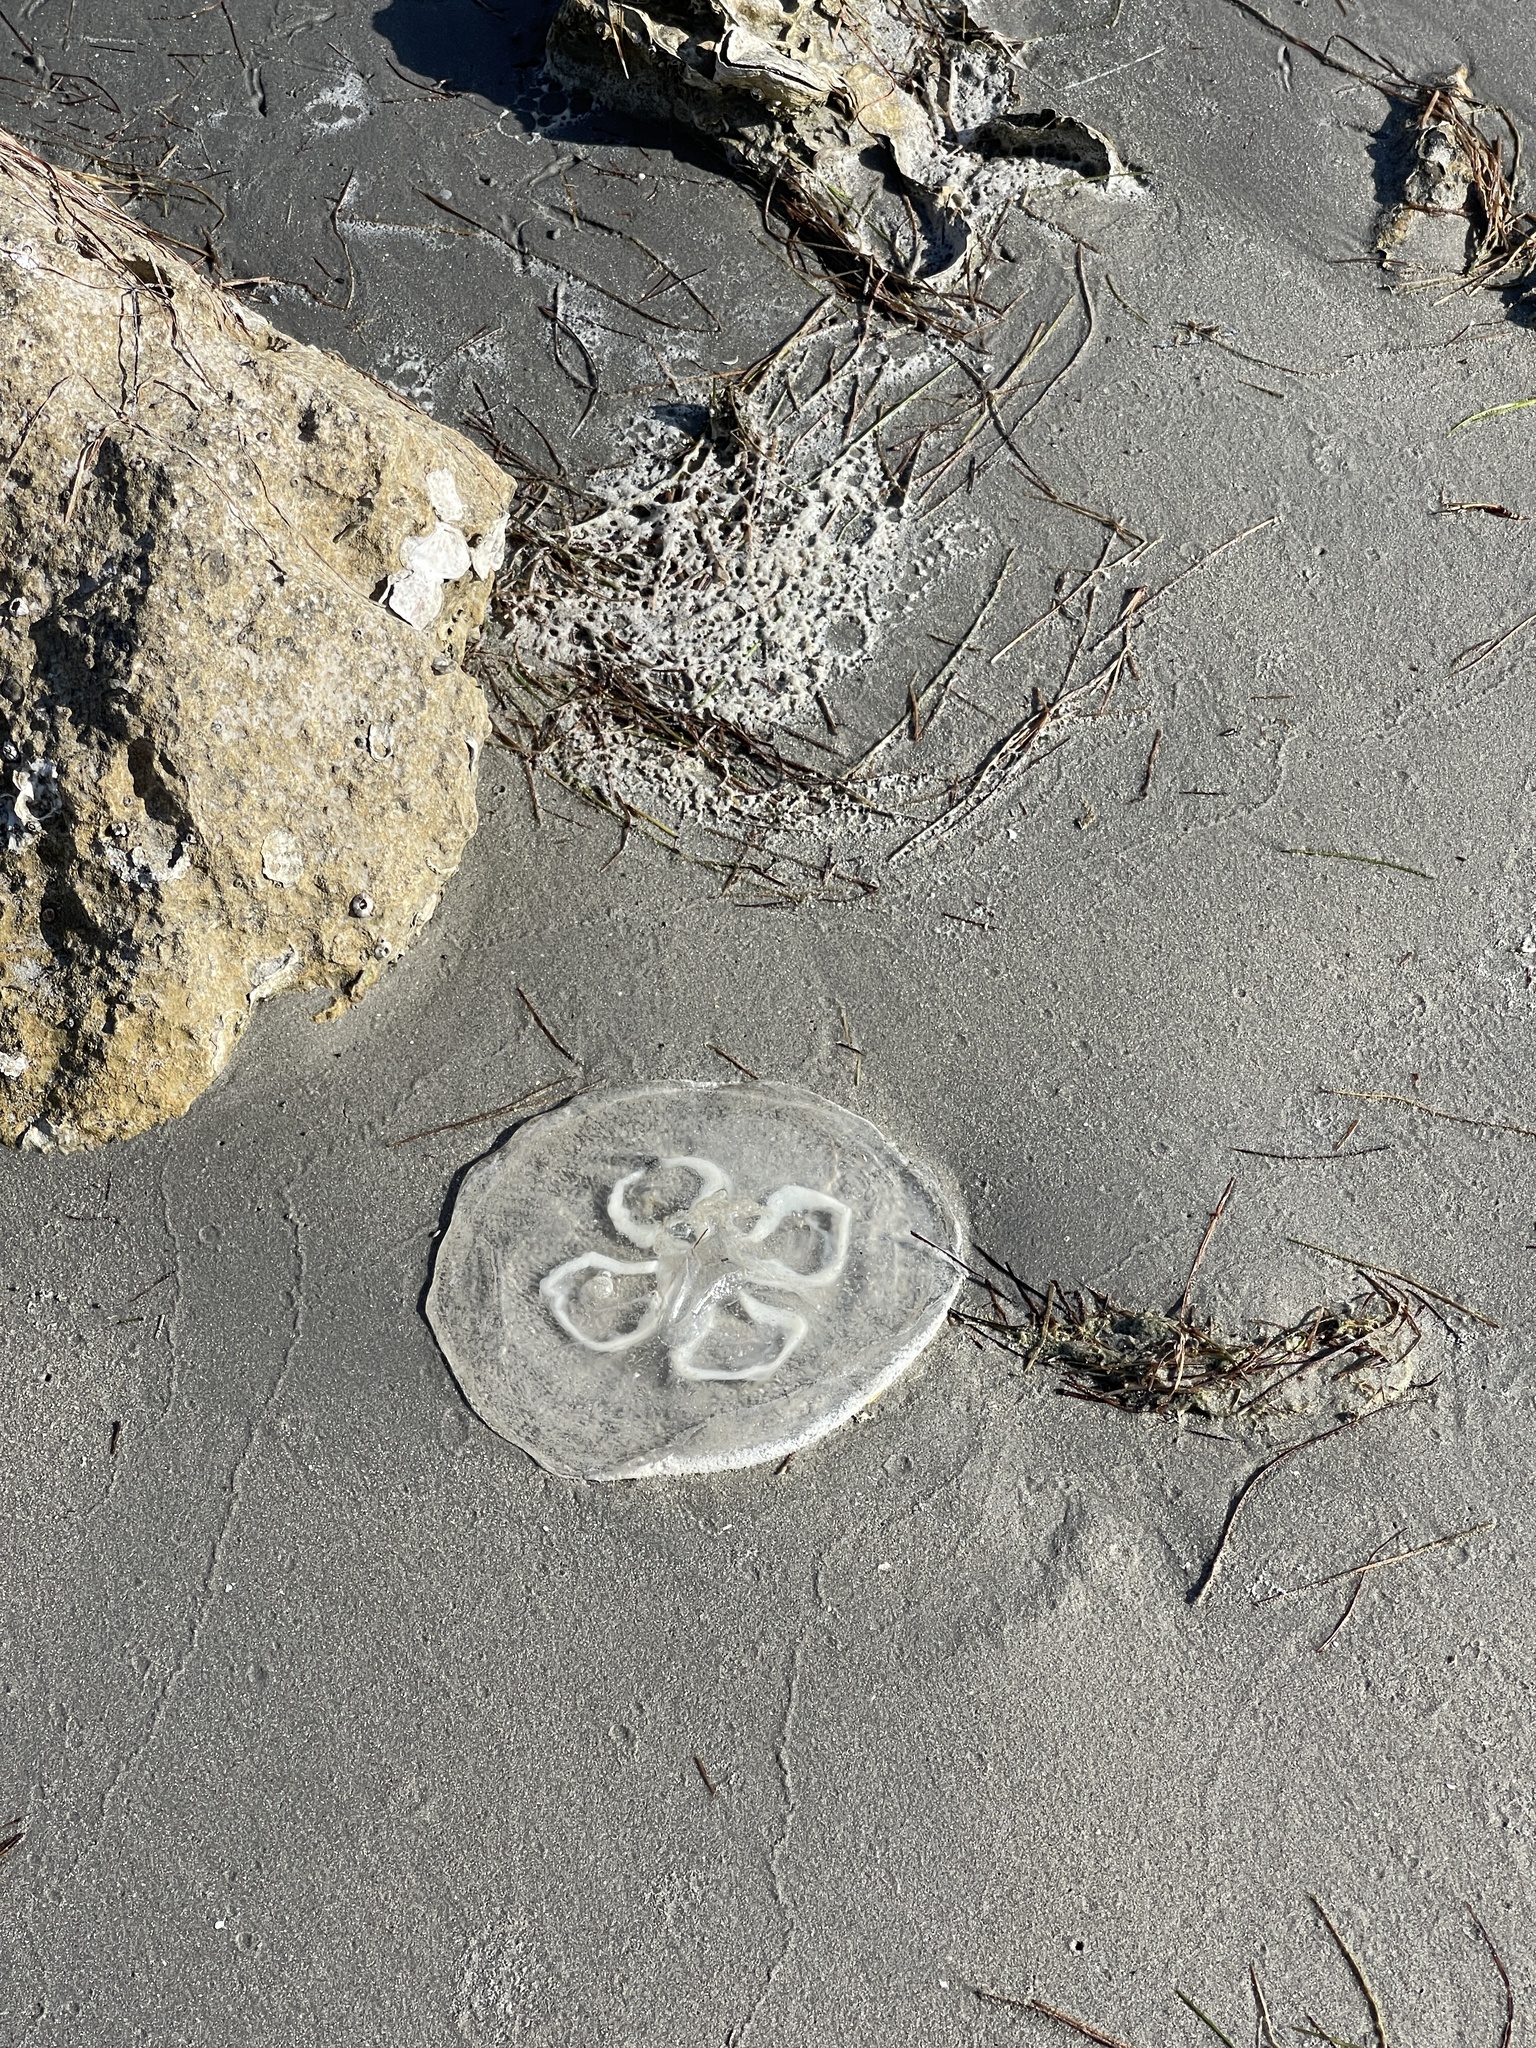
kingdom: Animalia
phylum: Cnidaria
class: Scyphozoa
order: Semaeostomeae
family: Ulmaridae
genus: Aurelia
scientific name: Aurelia marginalis
